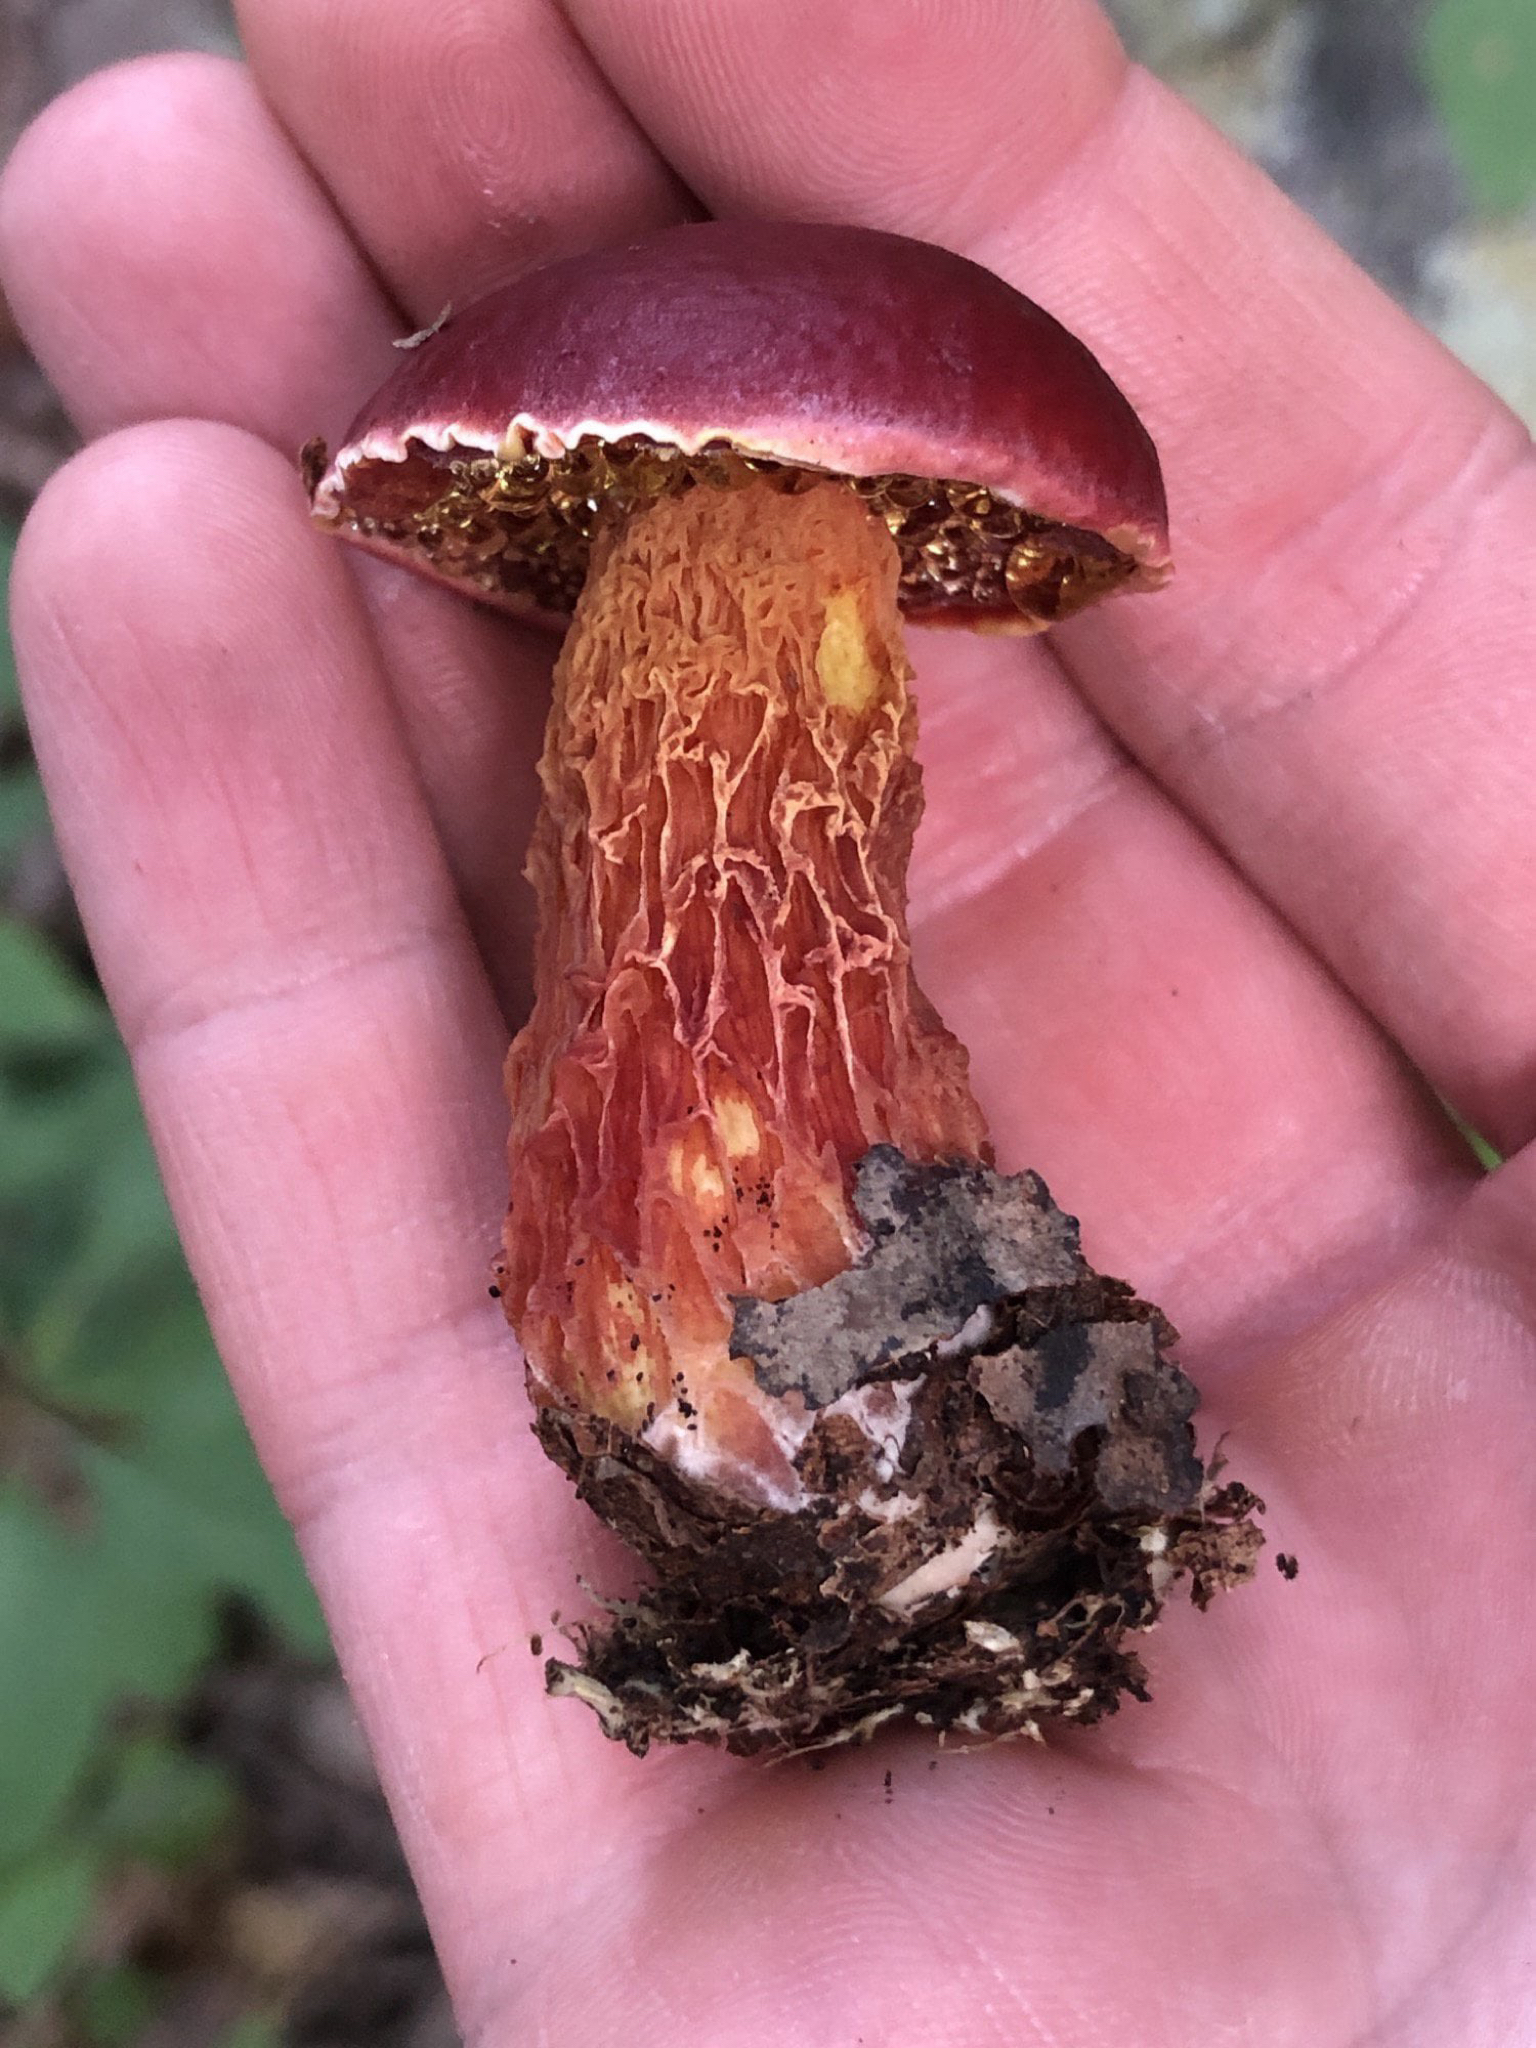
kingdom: Fungi
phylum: Basidiomycota
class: Agaricomycetes
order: Boletales
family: Boletaceae
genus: Butyriboletus
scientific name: Butyriboletus frostii
